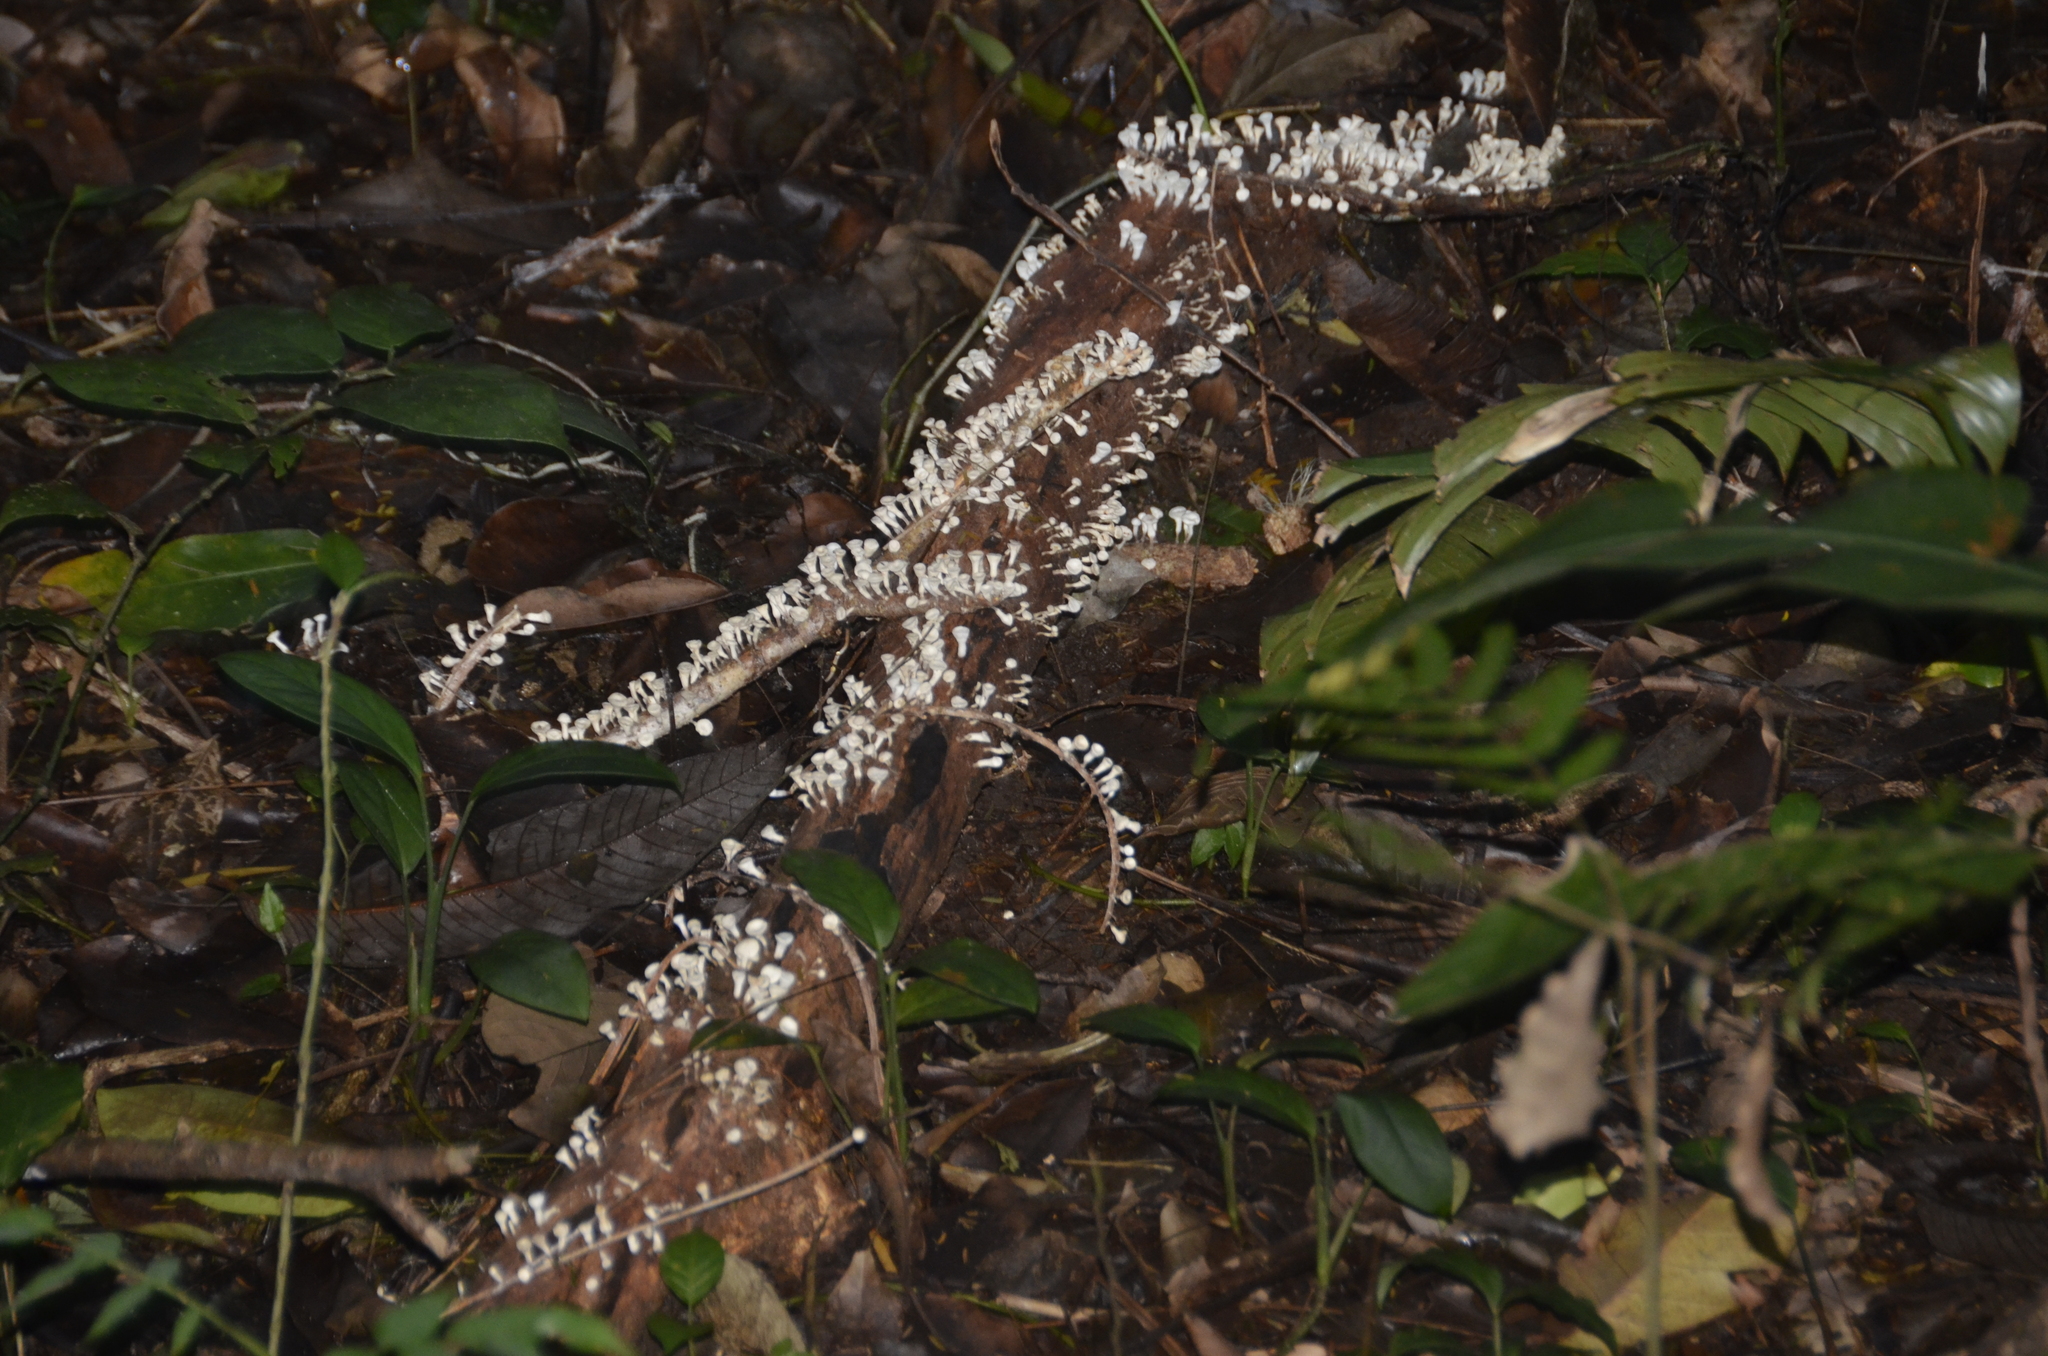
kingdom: Fungi
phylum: Basidiomycota
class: Agaricomycetes
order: Agaricales
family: Omphalotaceae
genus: Gymnopus
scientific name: Gymnopus montagnei
